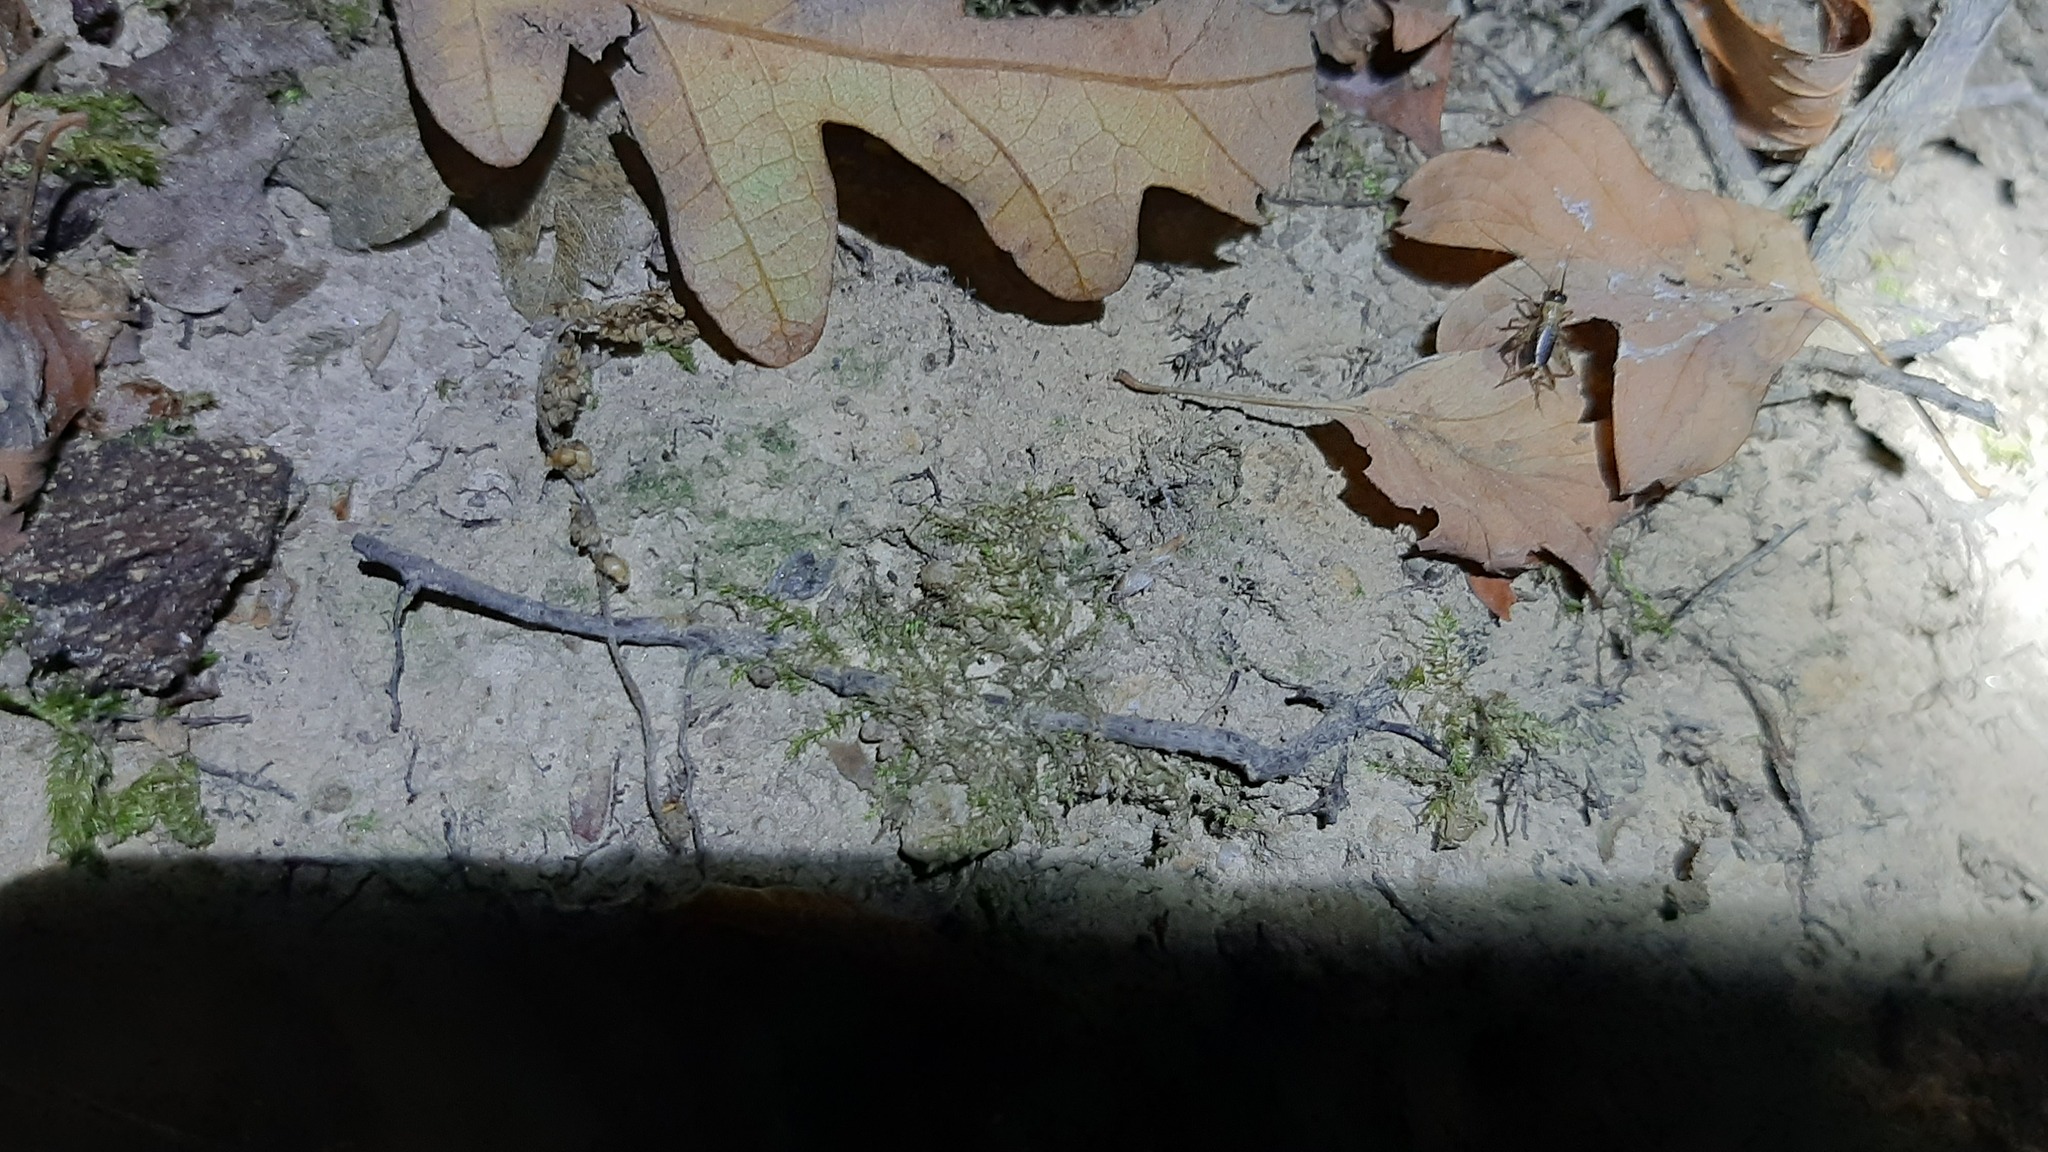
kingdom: Animalia
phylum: Arthropoda
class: Insecta
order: Orthoptera
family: Trigonidiidae
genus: Nemobius
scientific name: Nemobius sylvestris
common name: Wood-cricket
